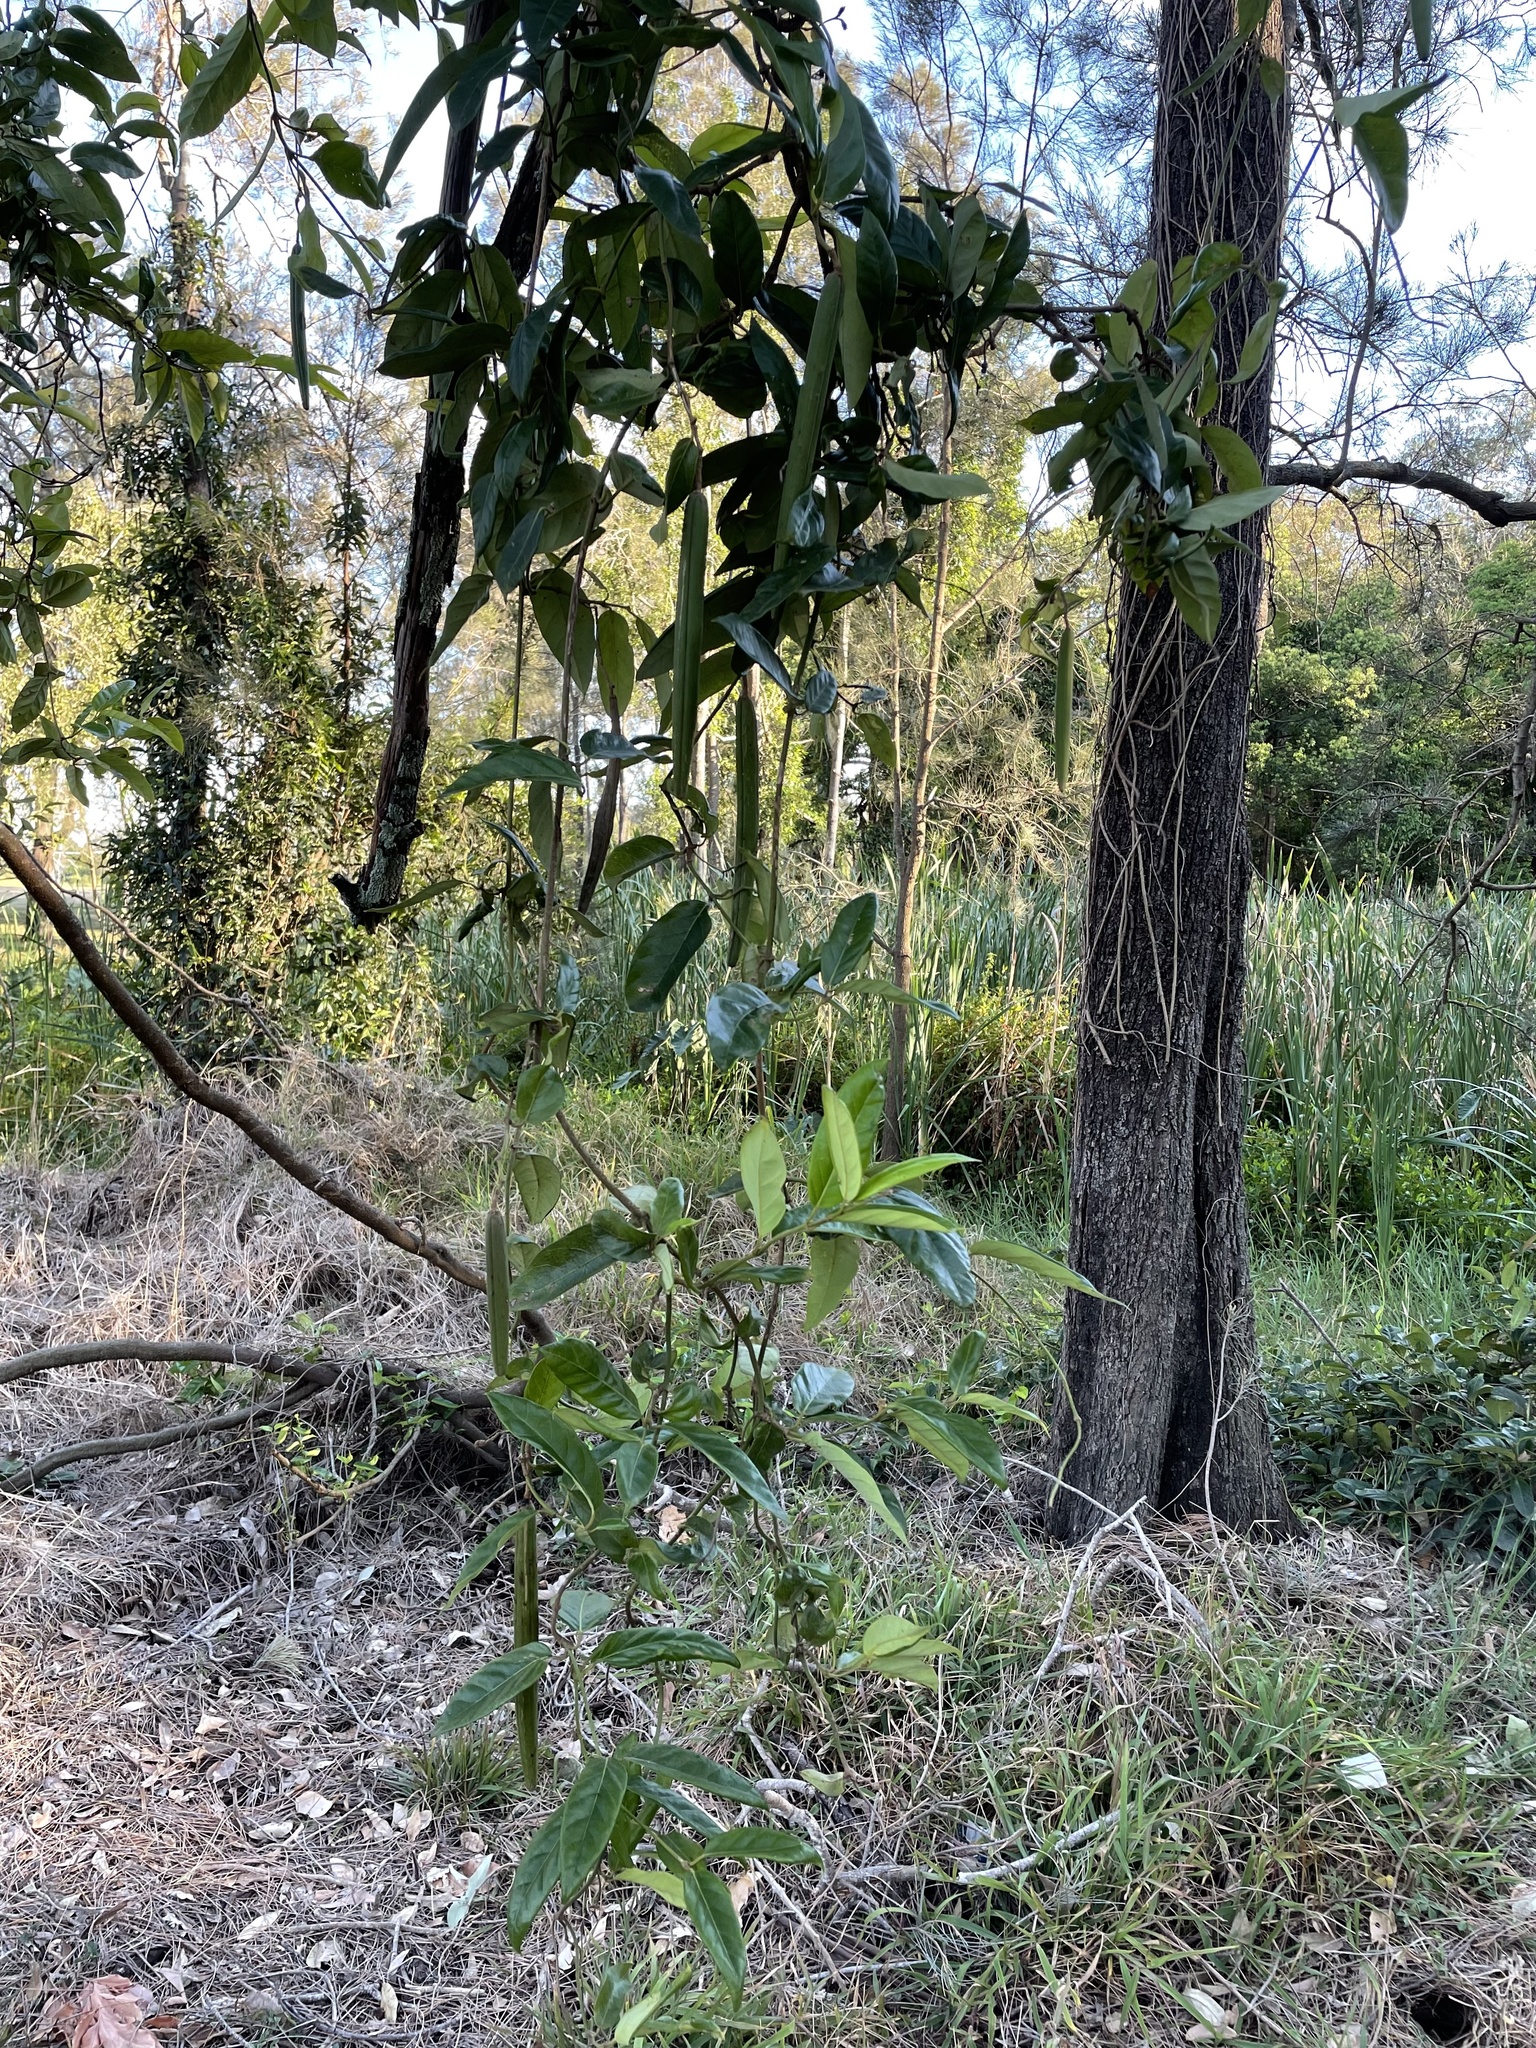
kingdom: Plantae
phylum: Tracheophyta
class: Magnoliopsida
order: Gentianales
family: Apocynaceae
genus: Parsonsia
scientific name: Parsonsia straminea
